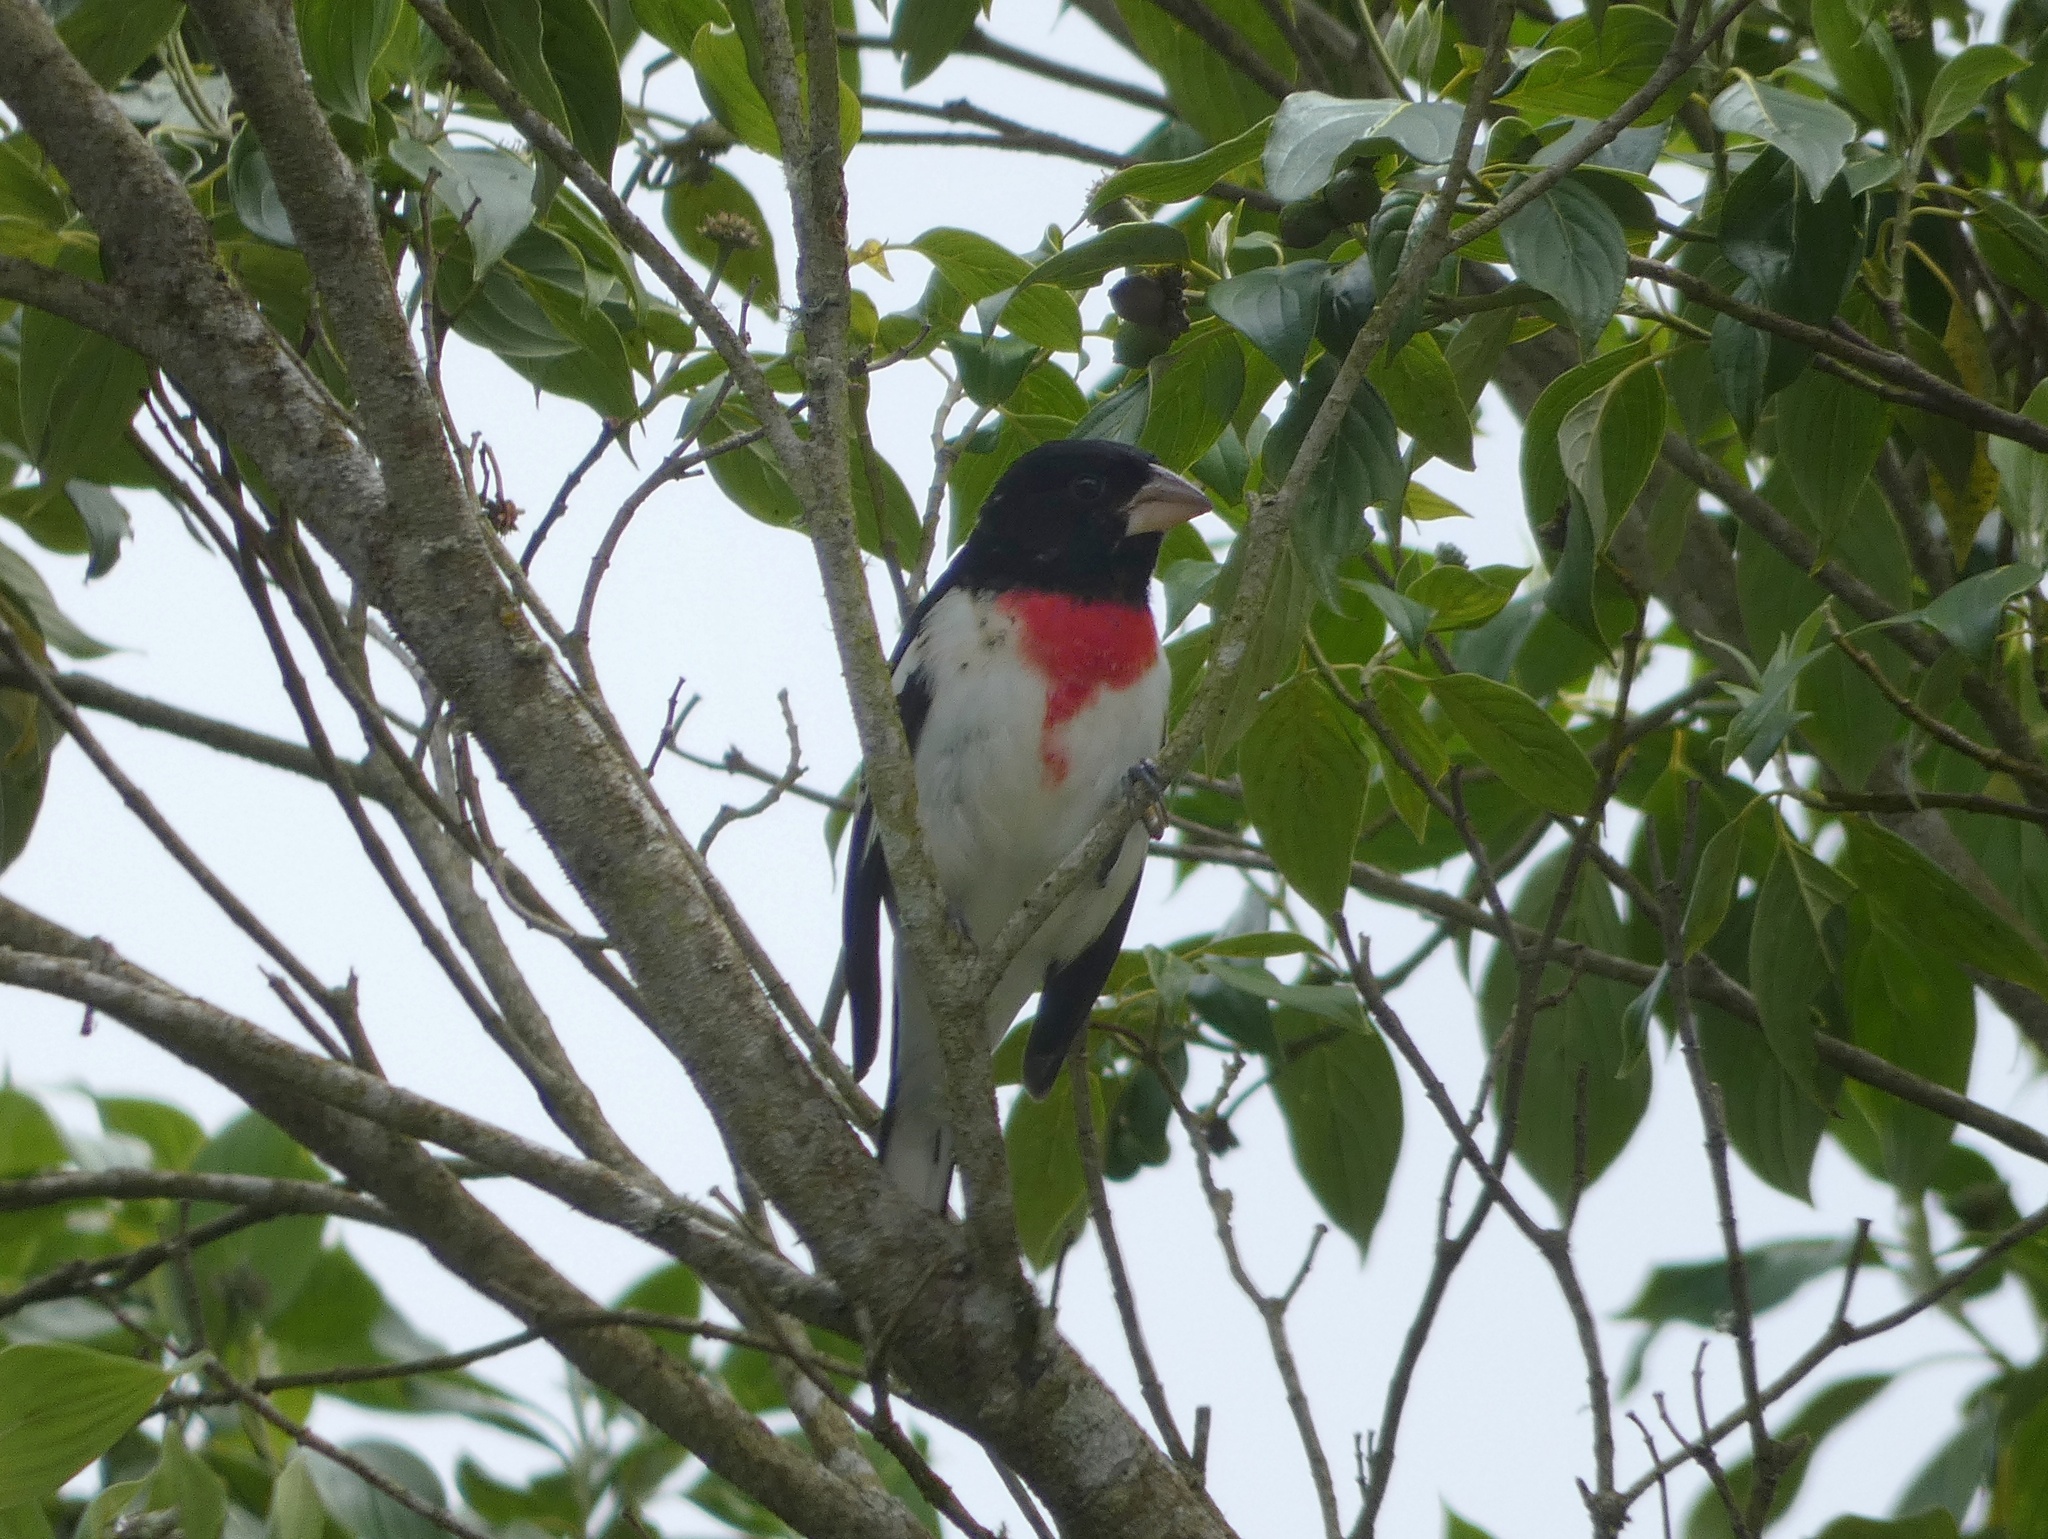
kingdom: Animalia
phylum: Chordata
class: Aves
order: Passeriformes
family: Cardinalidae
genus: Pheucticus
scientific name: Pheucticus ludovicianus
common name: Rose-breasted grosbeak
